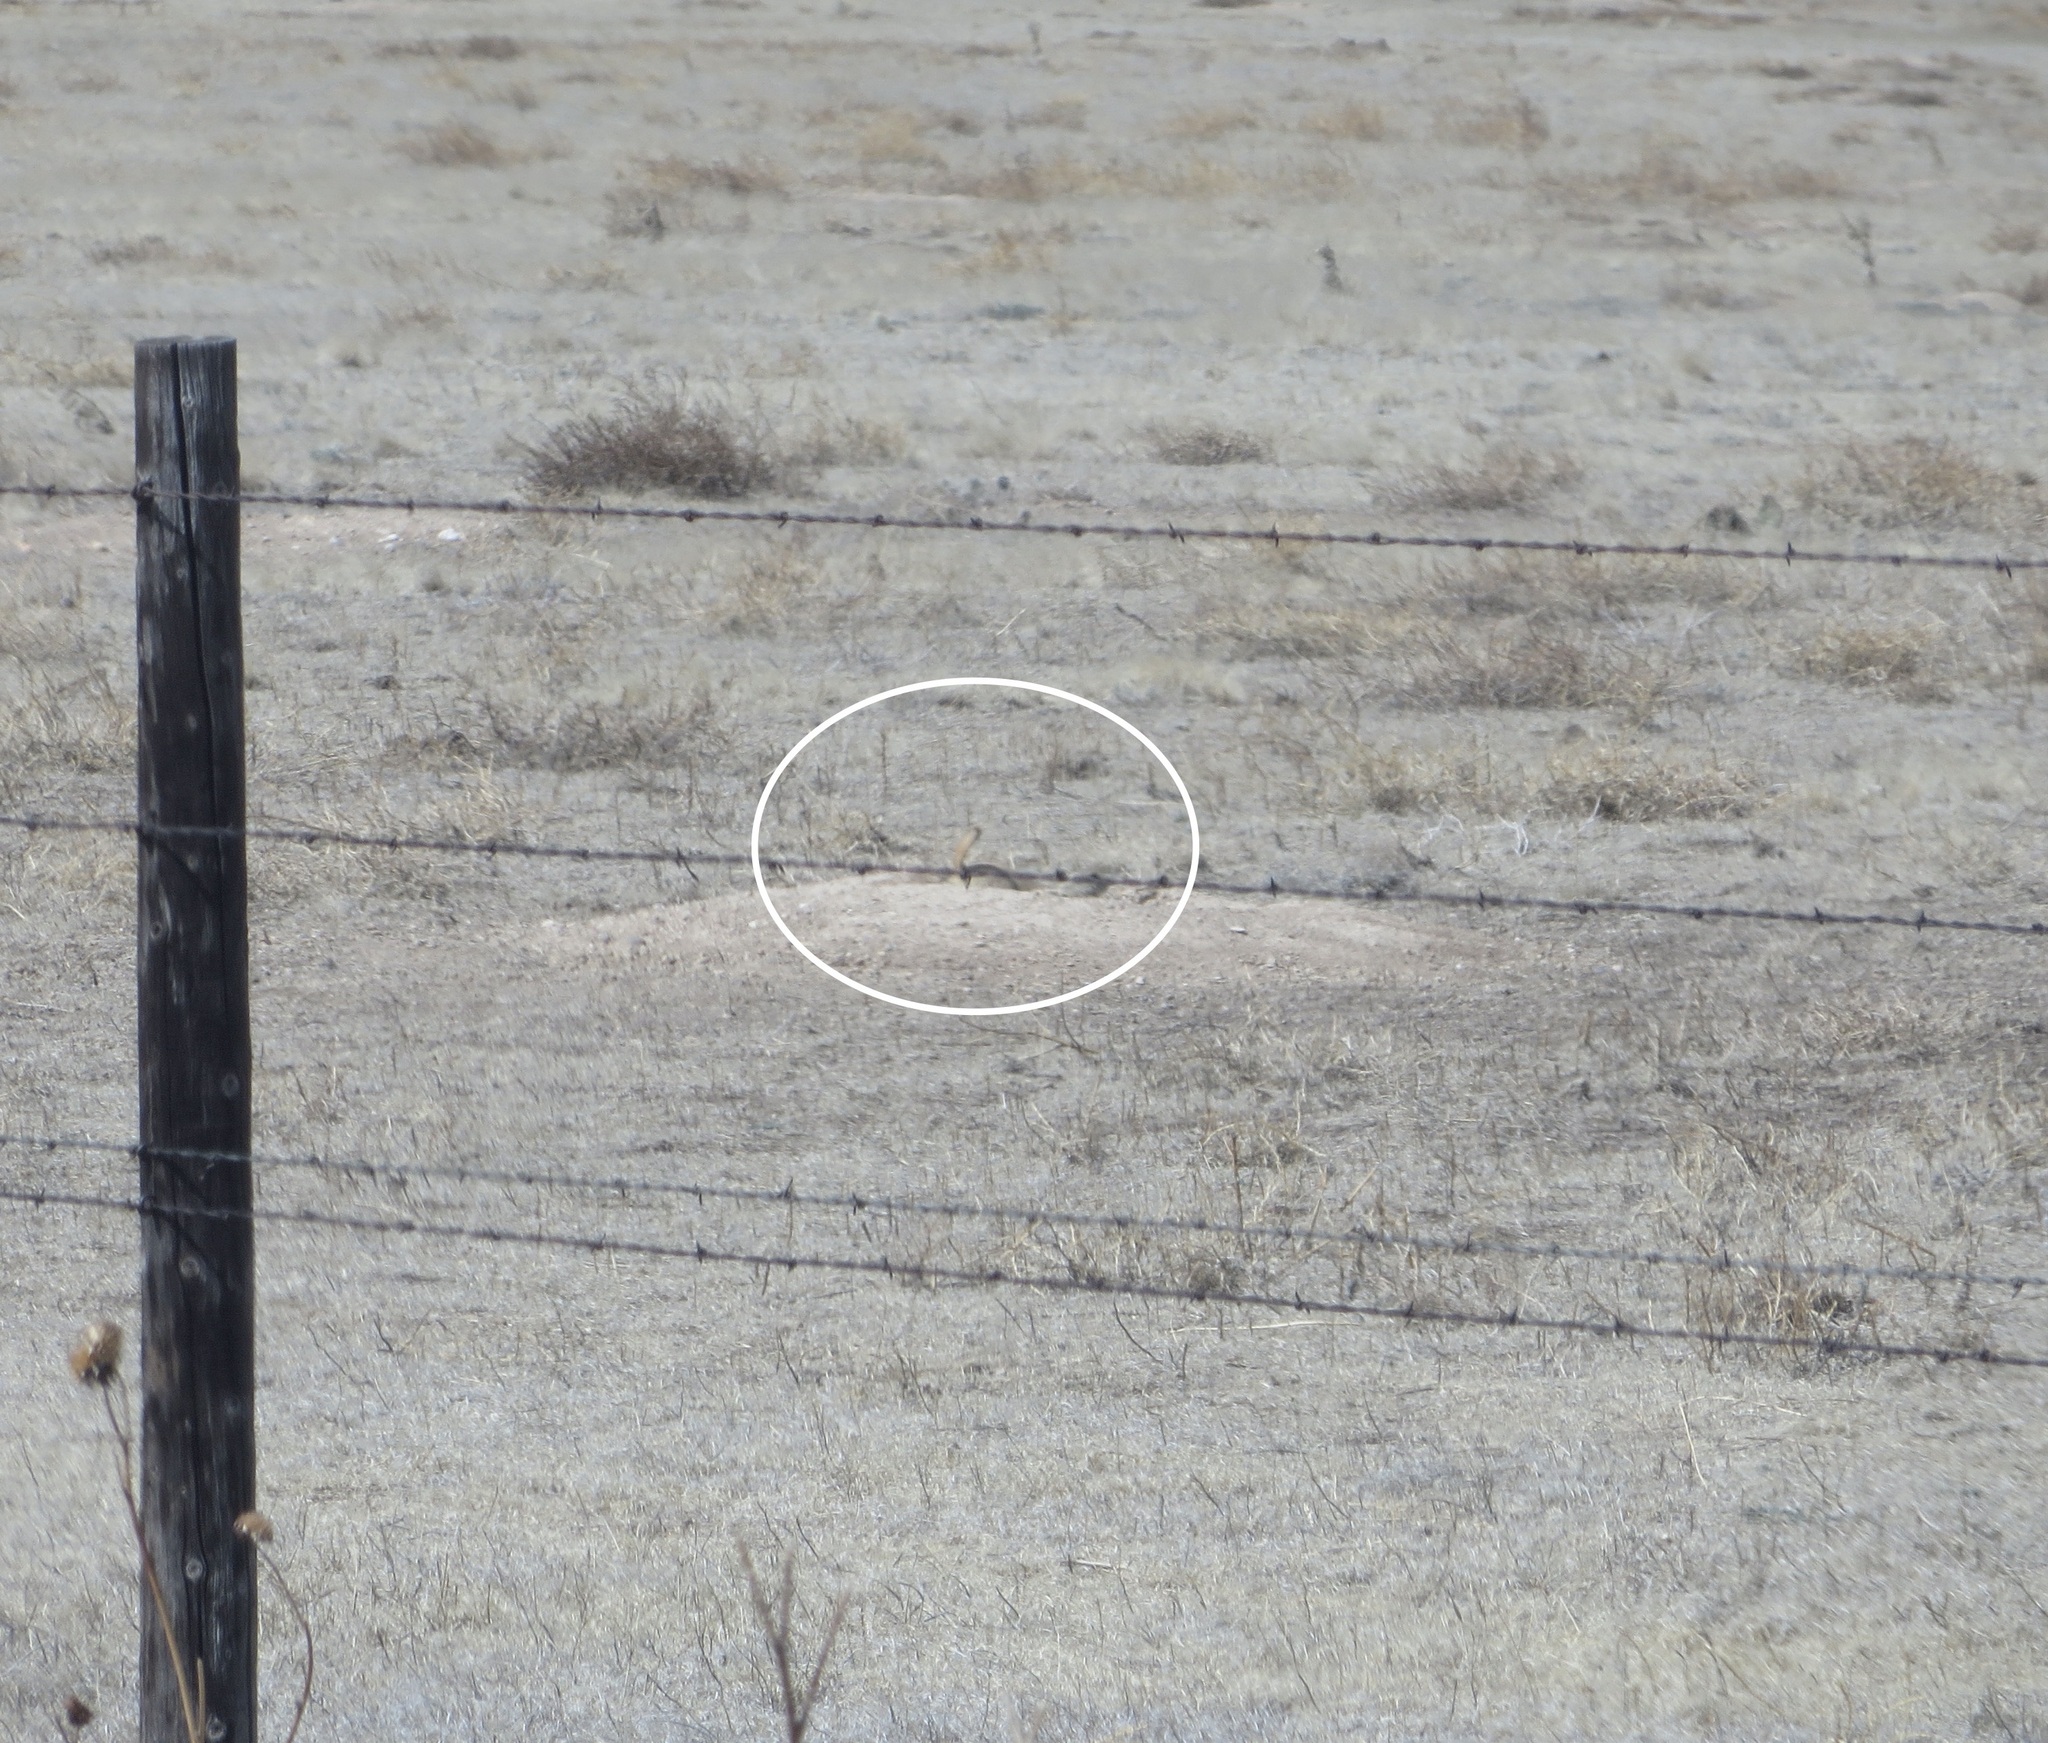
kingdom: Animalia
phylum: Chordata
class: Mammalia
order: Rodentia
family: Sciuridae
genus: Cynomys
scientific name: Cynomys ludovicianus
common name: Black-tailed prairie dog
